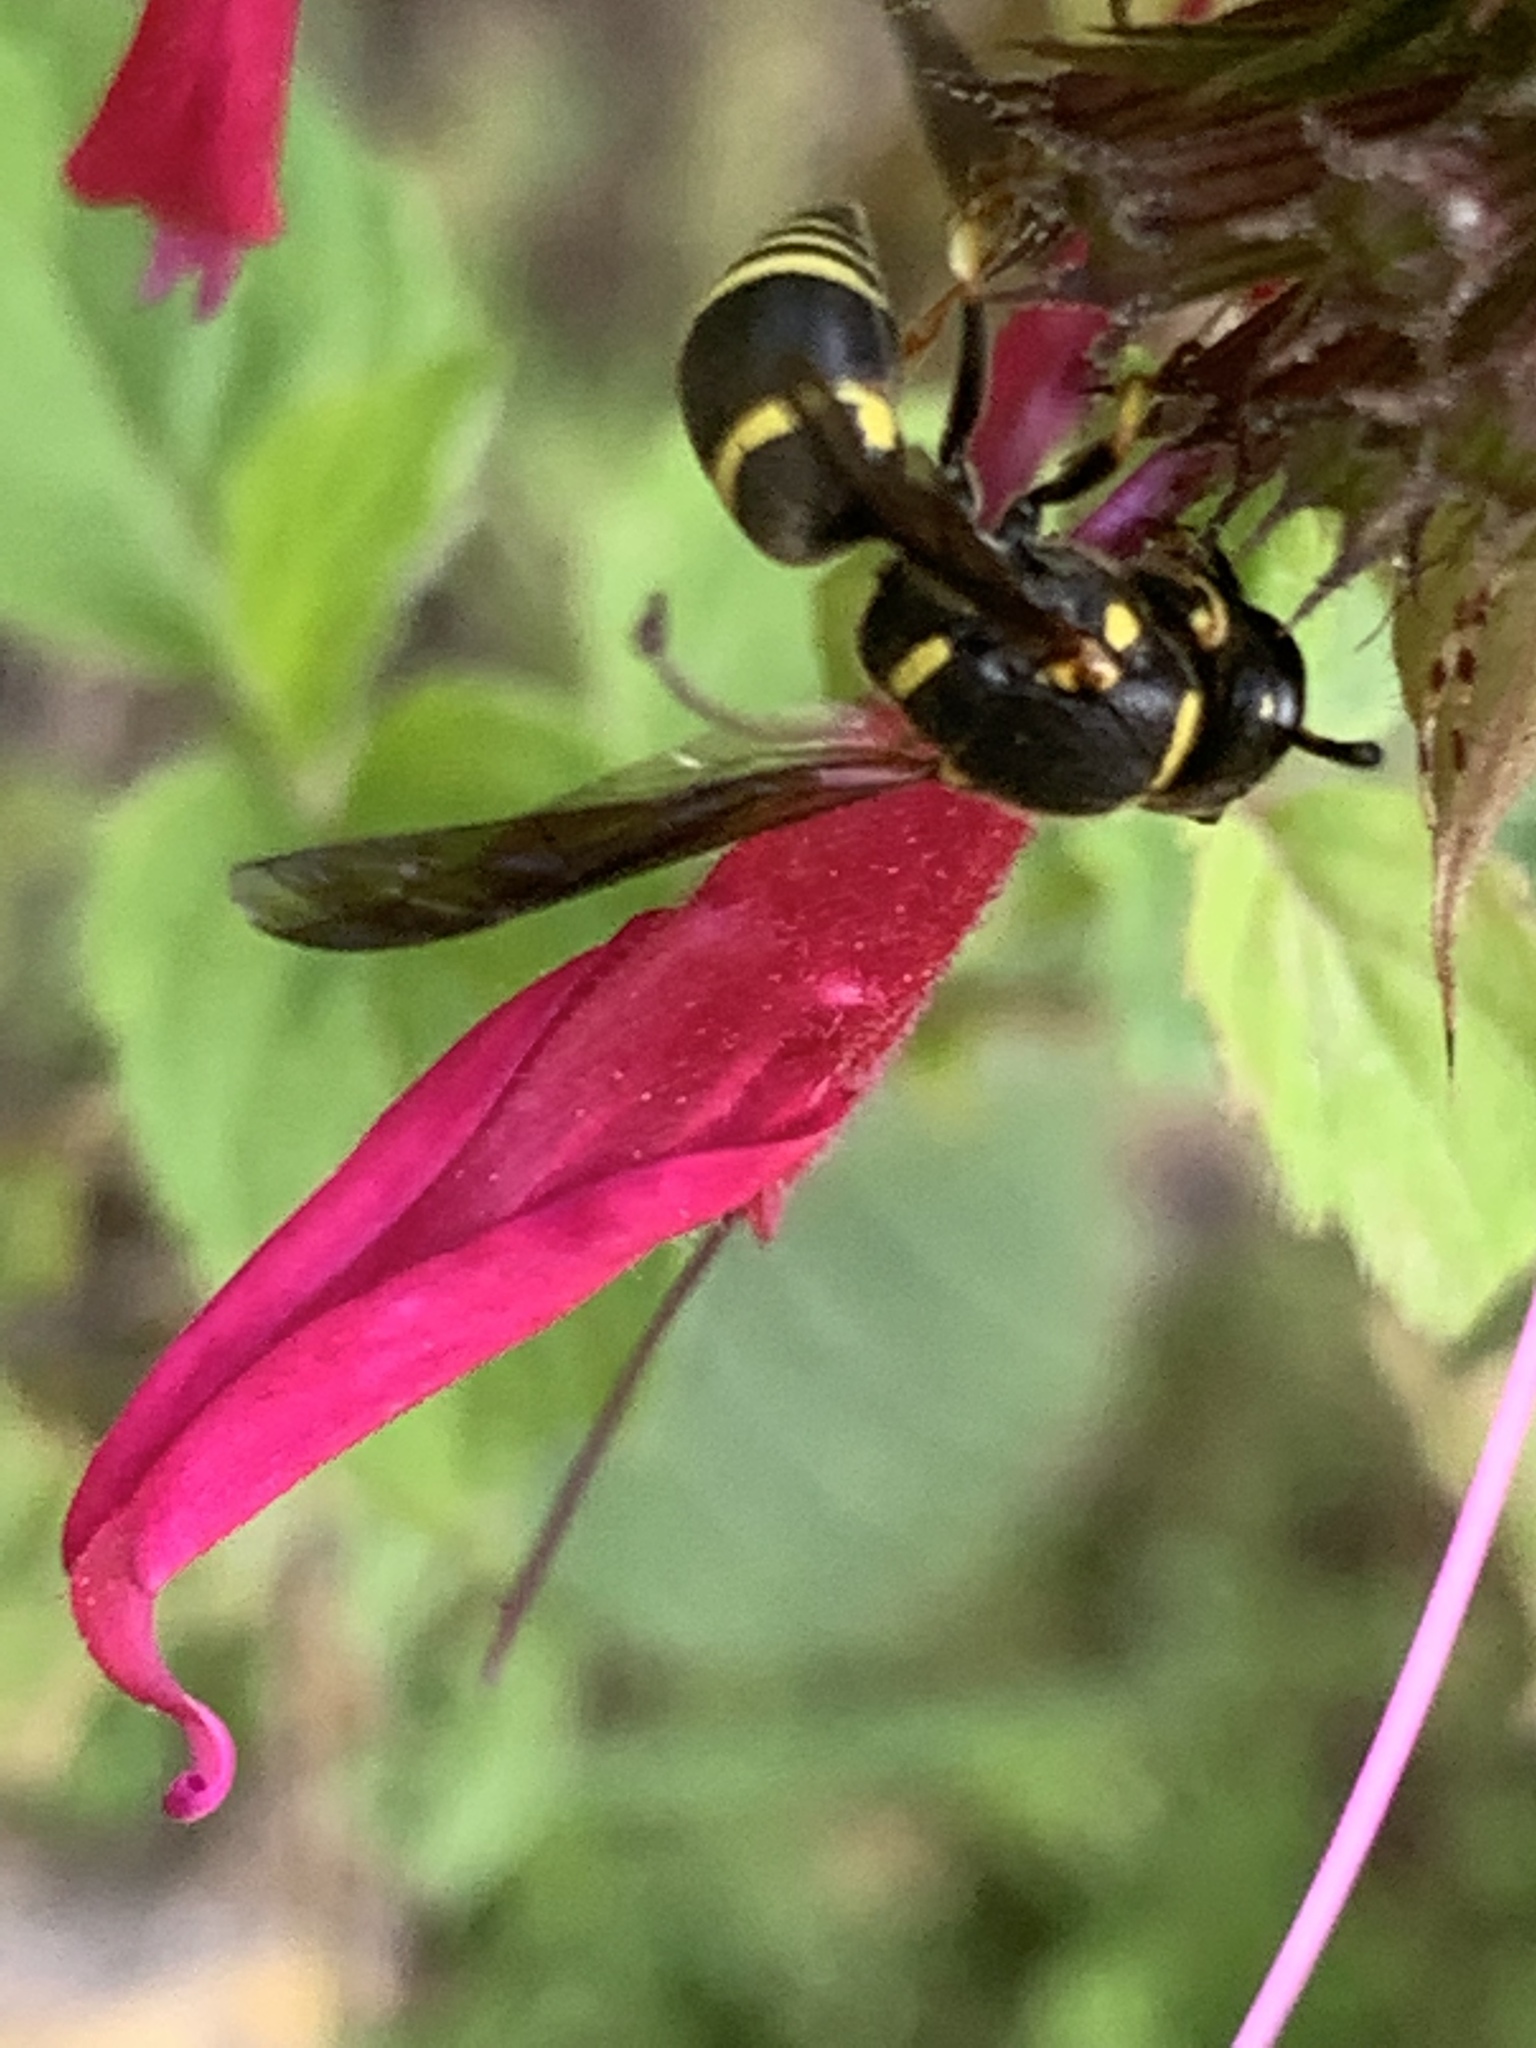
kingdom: Animalia
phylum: Arthropoda
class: Insecta
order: Hymenoptera
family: Eumenidae
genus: Euodynerus
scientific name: Euodynerus foraminatus
